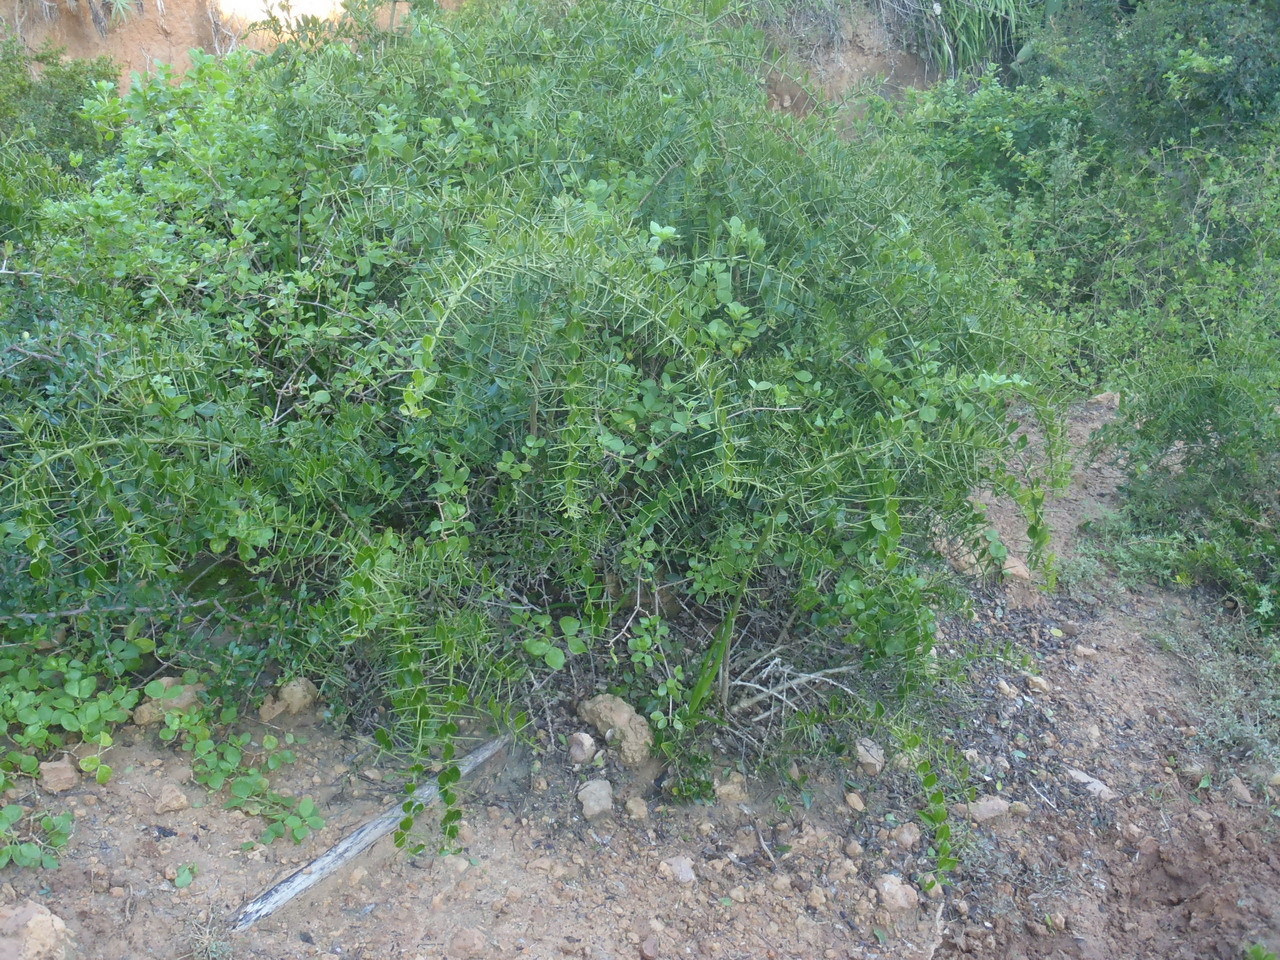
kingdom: Plantae
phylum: Tracheophyta
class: Magnoliopsida
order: Brassicales
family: Salvadoraceae
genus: Azima
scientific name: Azima tetracantha
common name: Needle bush
